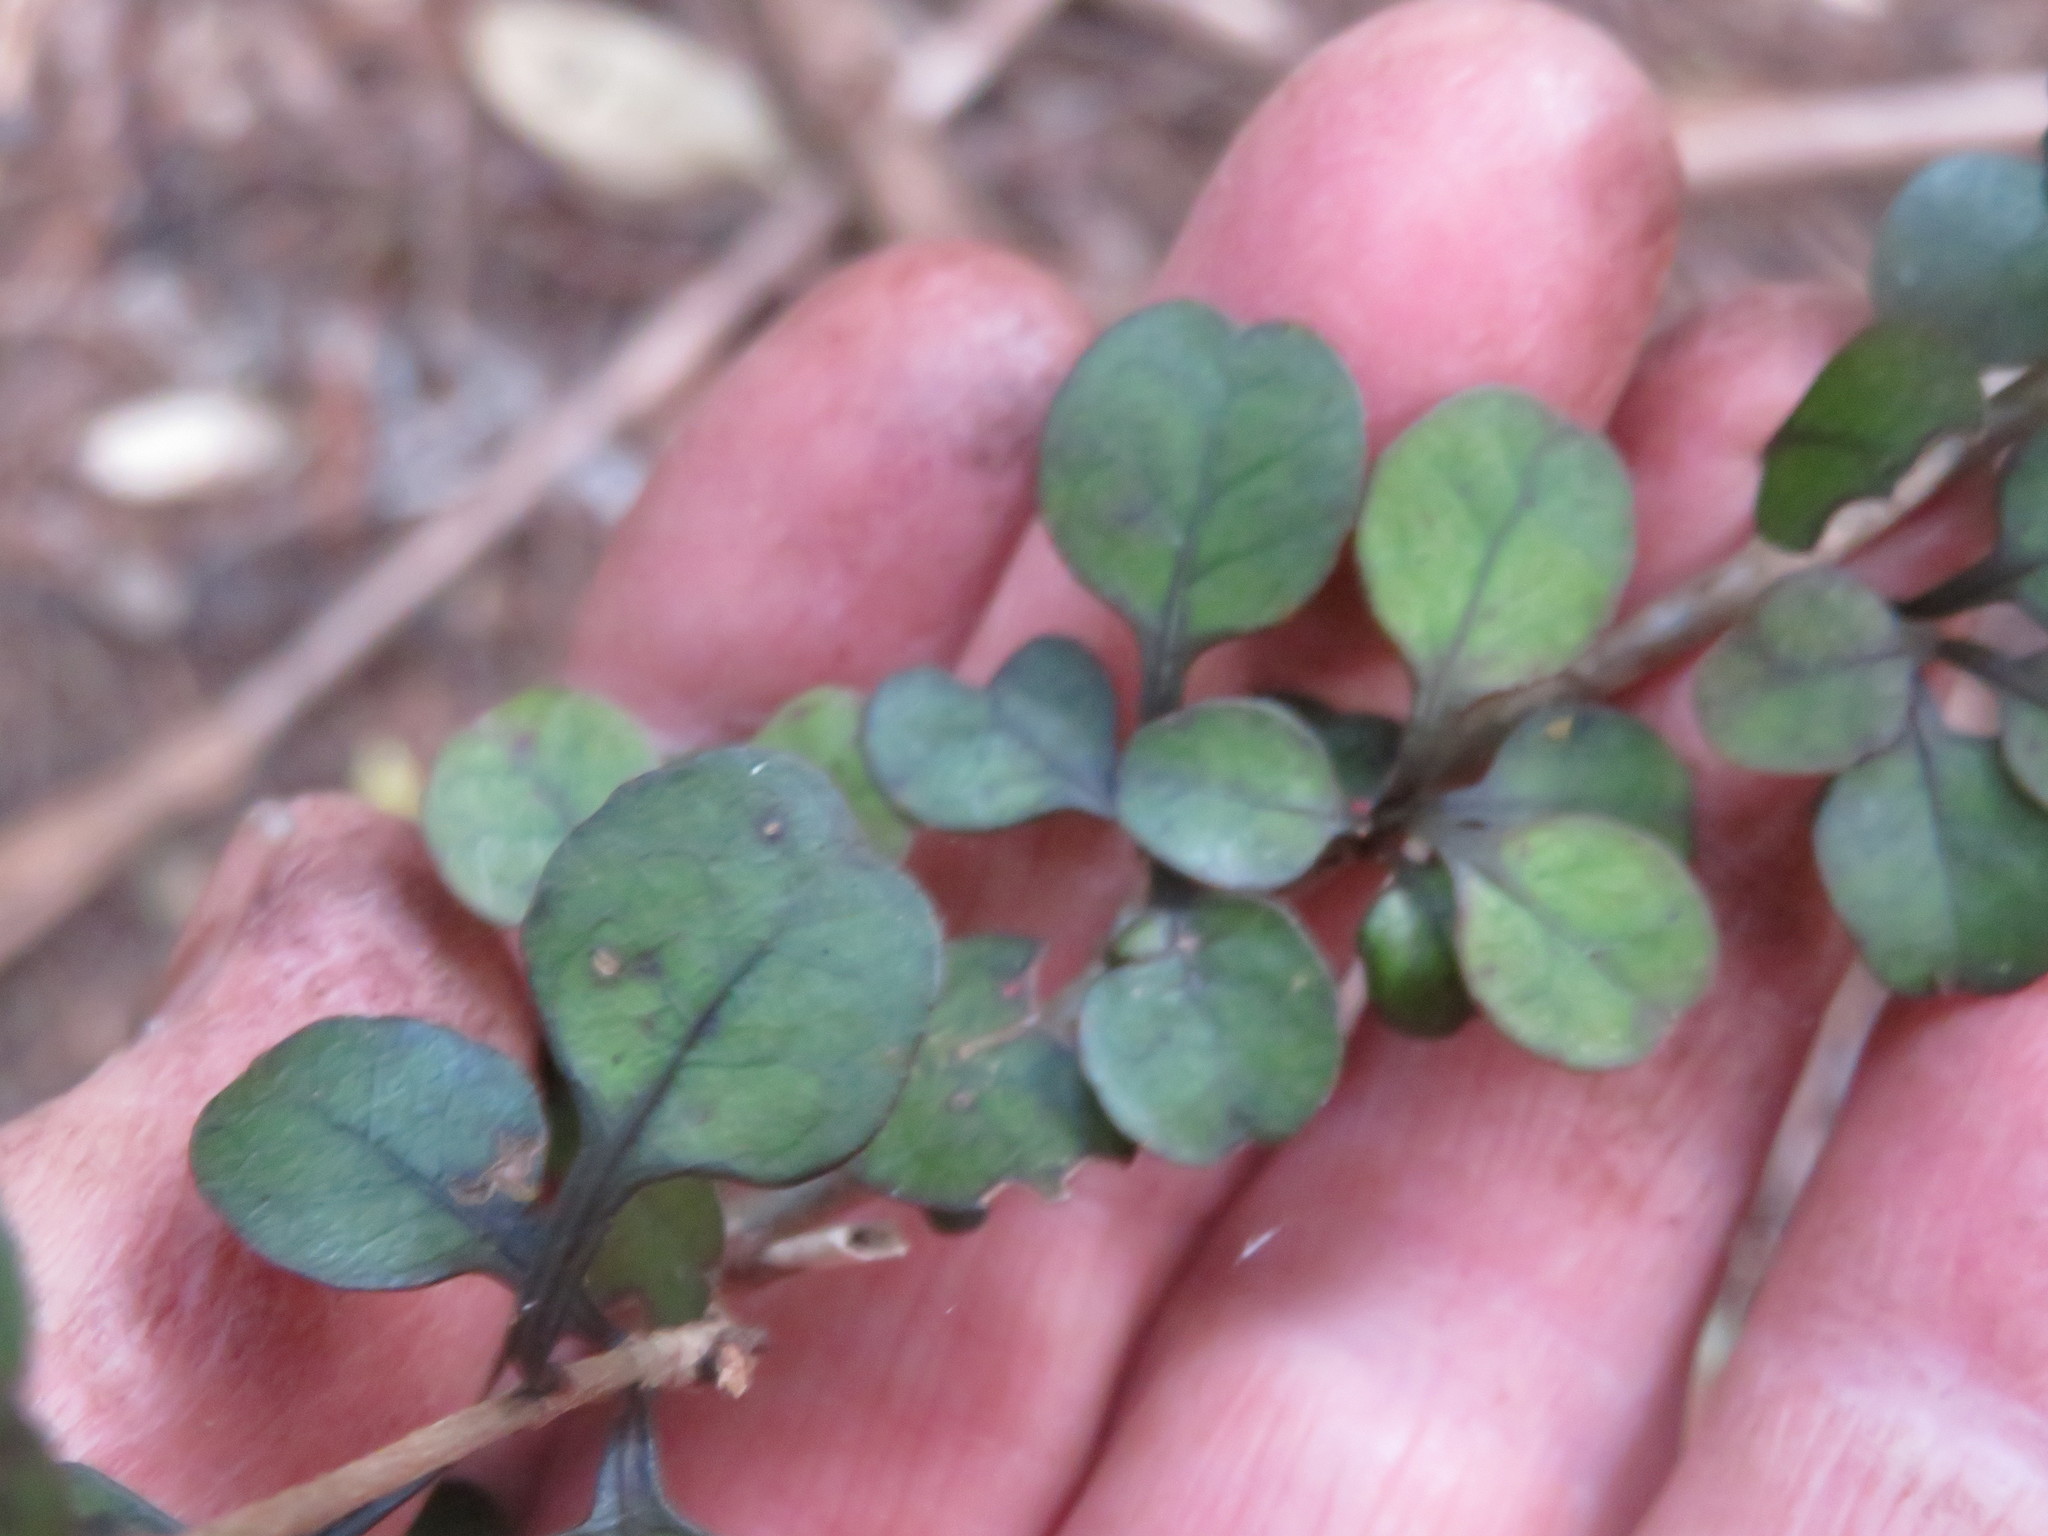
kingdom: Plantae
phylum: Tracheophyta
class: Magnoliopsida
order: Gentianales
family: Rubiaceae
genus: Coprosma
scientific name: Coprosma spathulata
